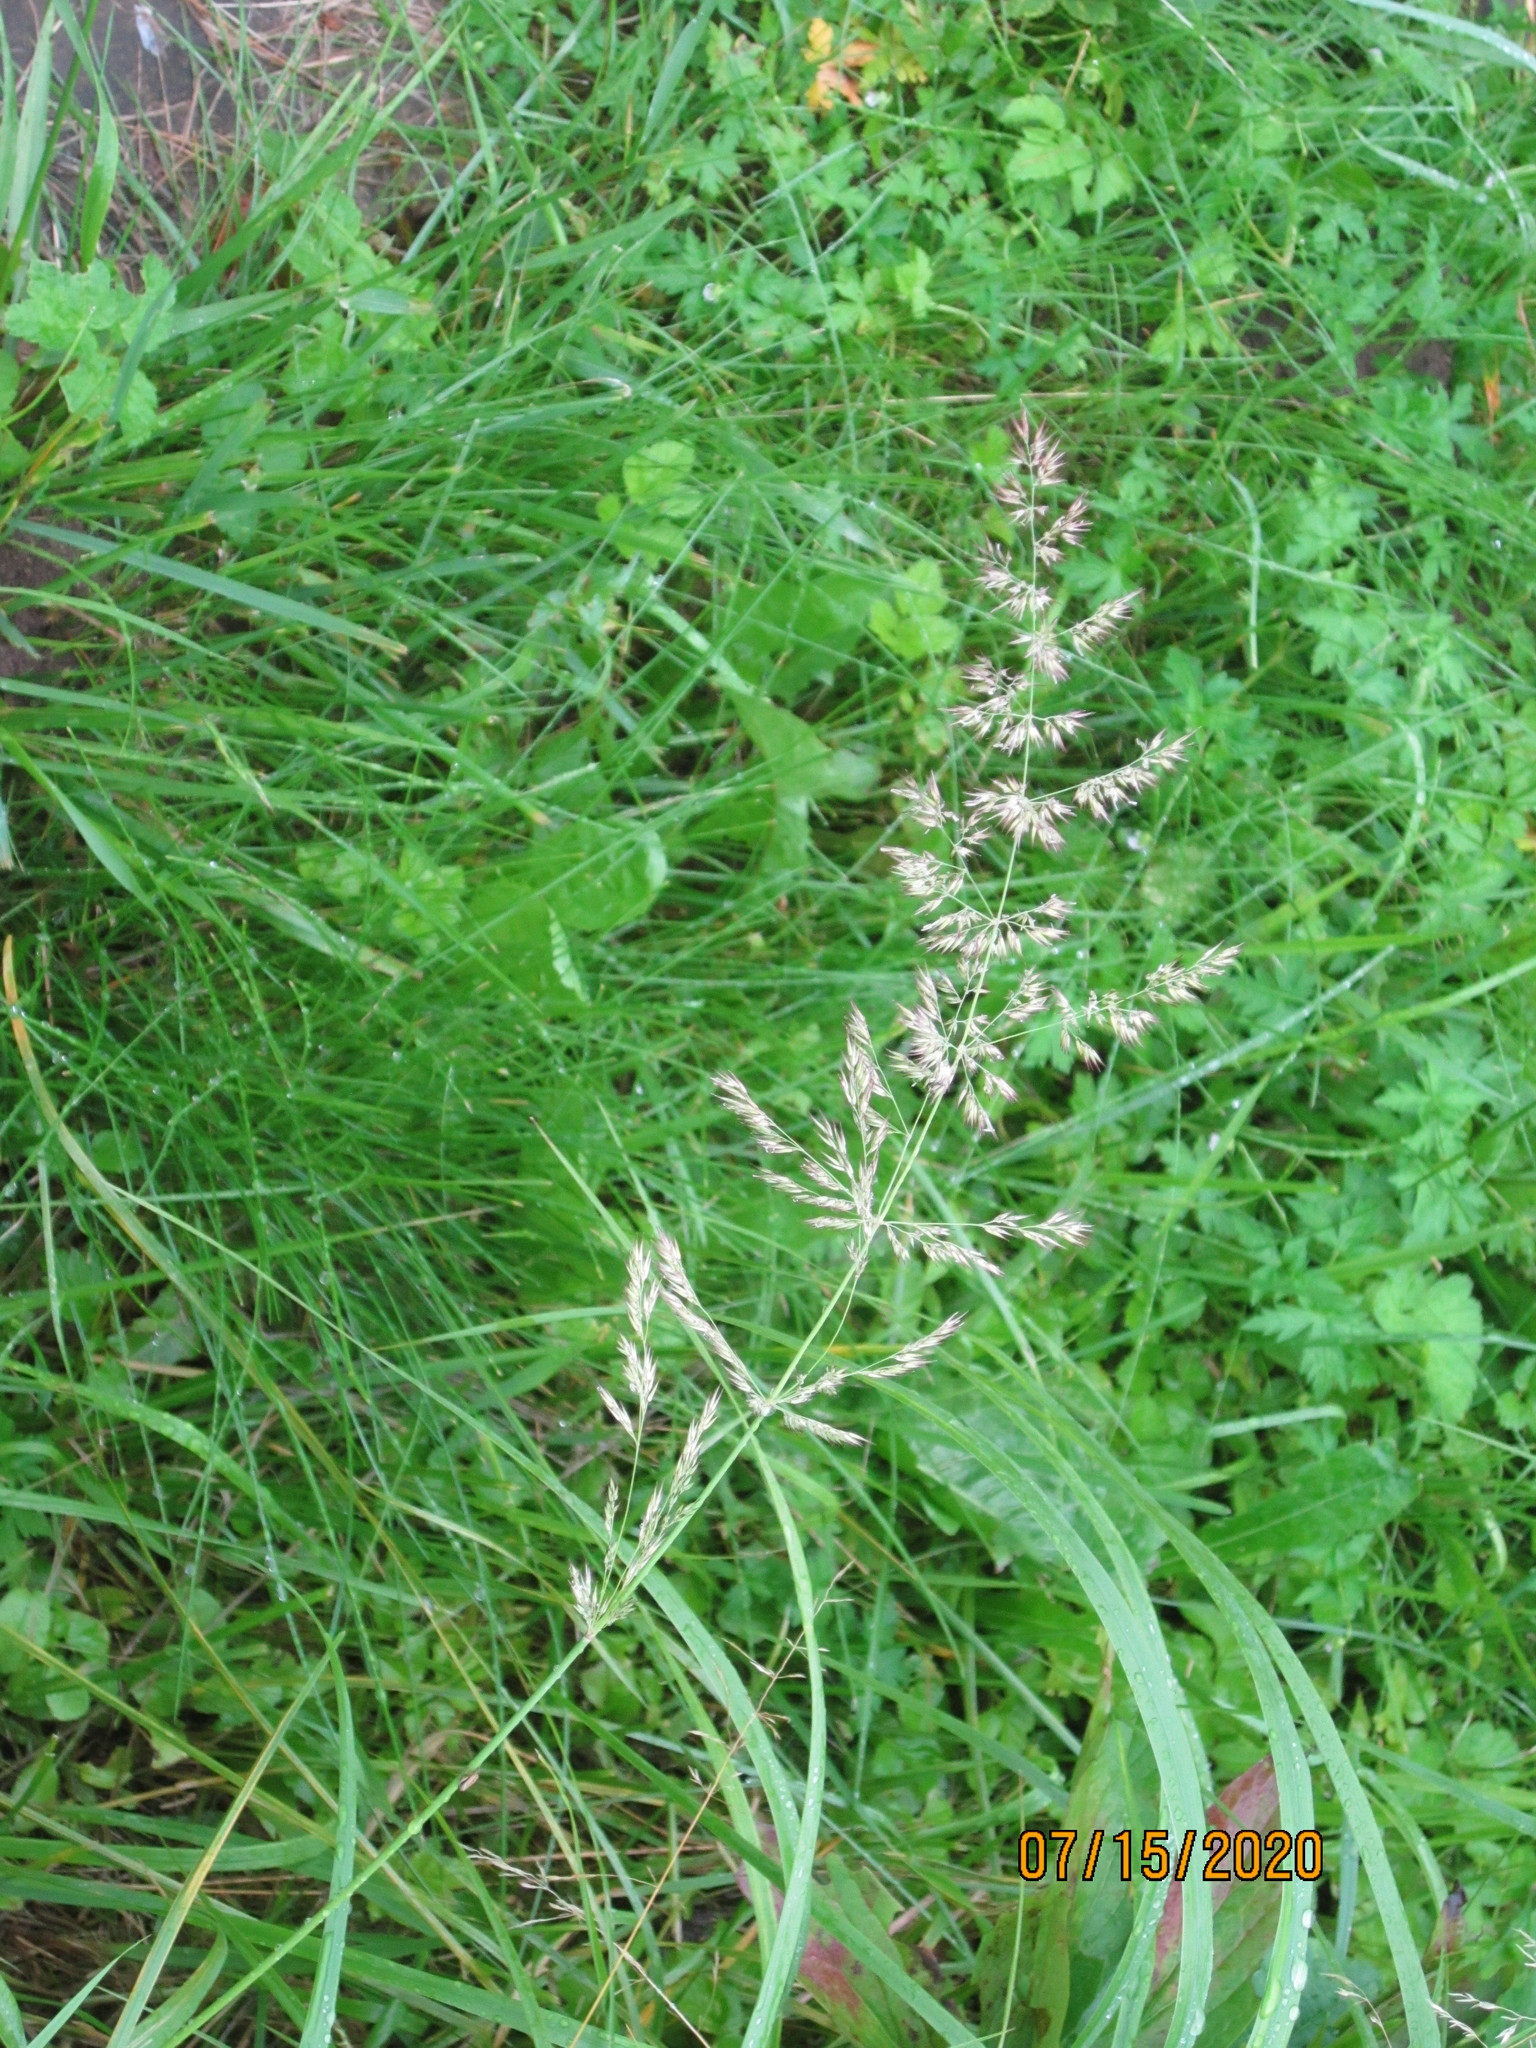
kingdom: Plantae
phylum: Tracheophyta
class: Liliopsida
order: Poales
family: Poaceae
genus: Calamagrostis
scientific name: Calamagrostis epigejos
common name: Wood small-reed
